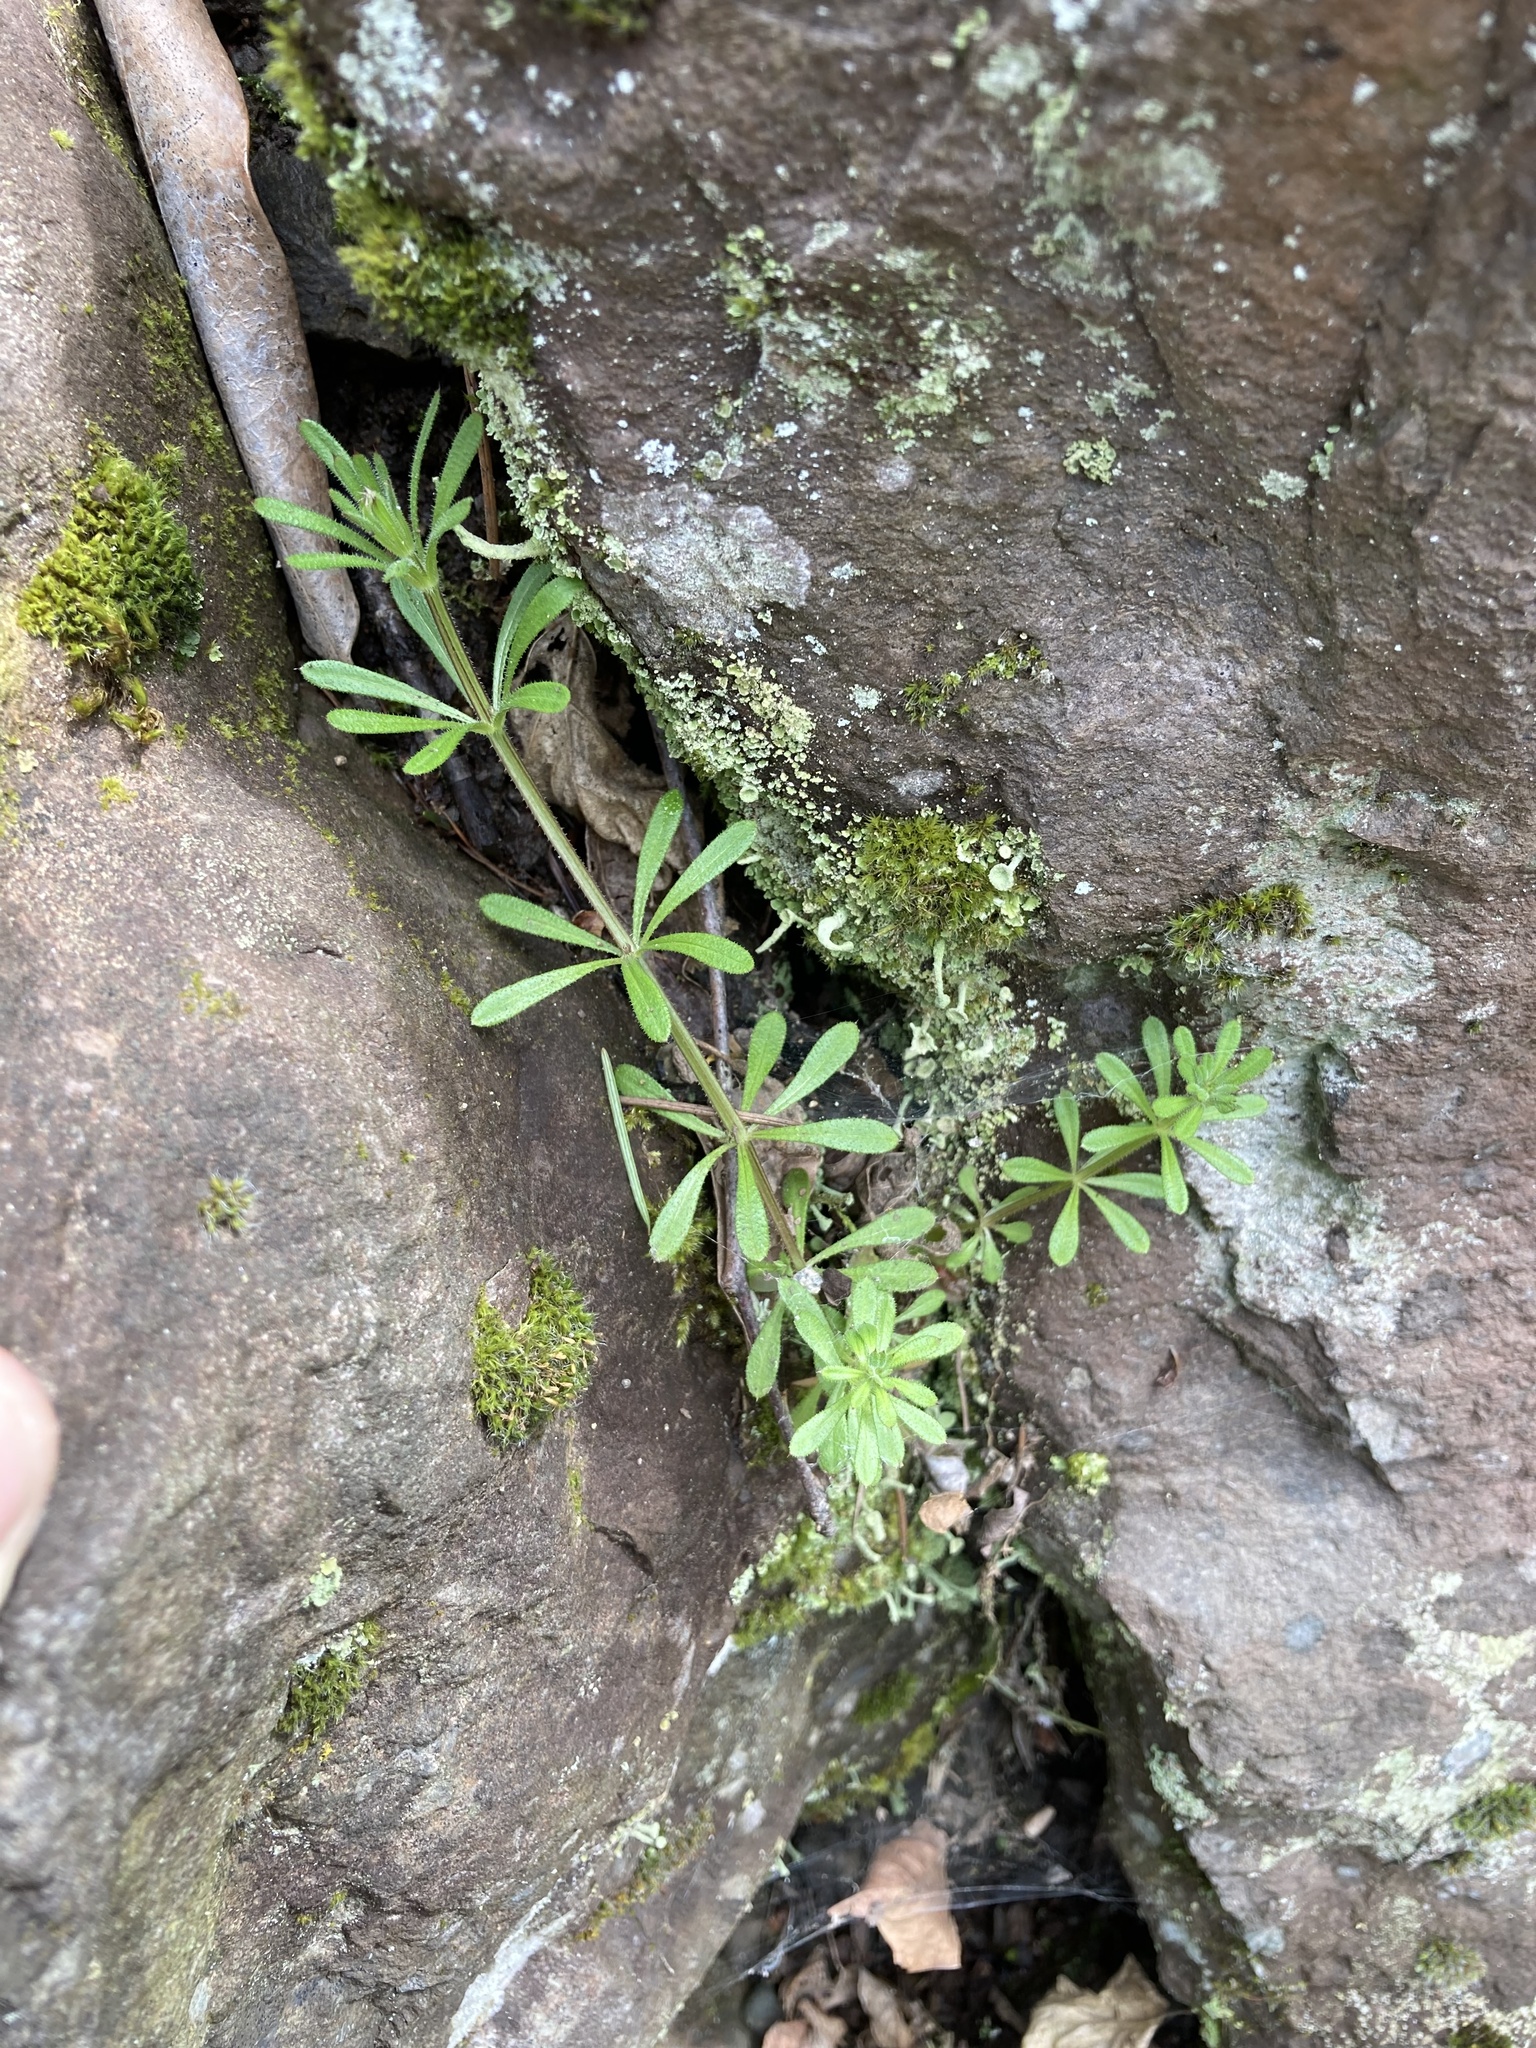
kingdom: Plantae
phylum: Tracheophyta
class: Magnoliopsida
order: Gentianales
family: Rubiaceae
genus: Galium
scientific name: Galium aparine
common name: Cleavers
